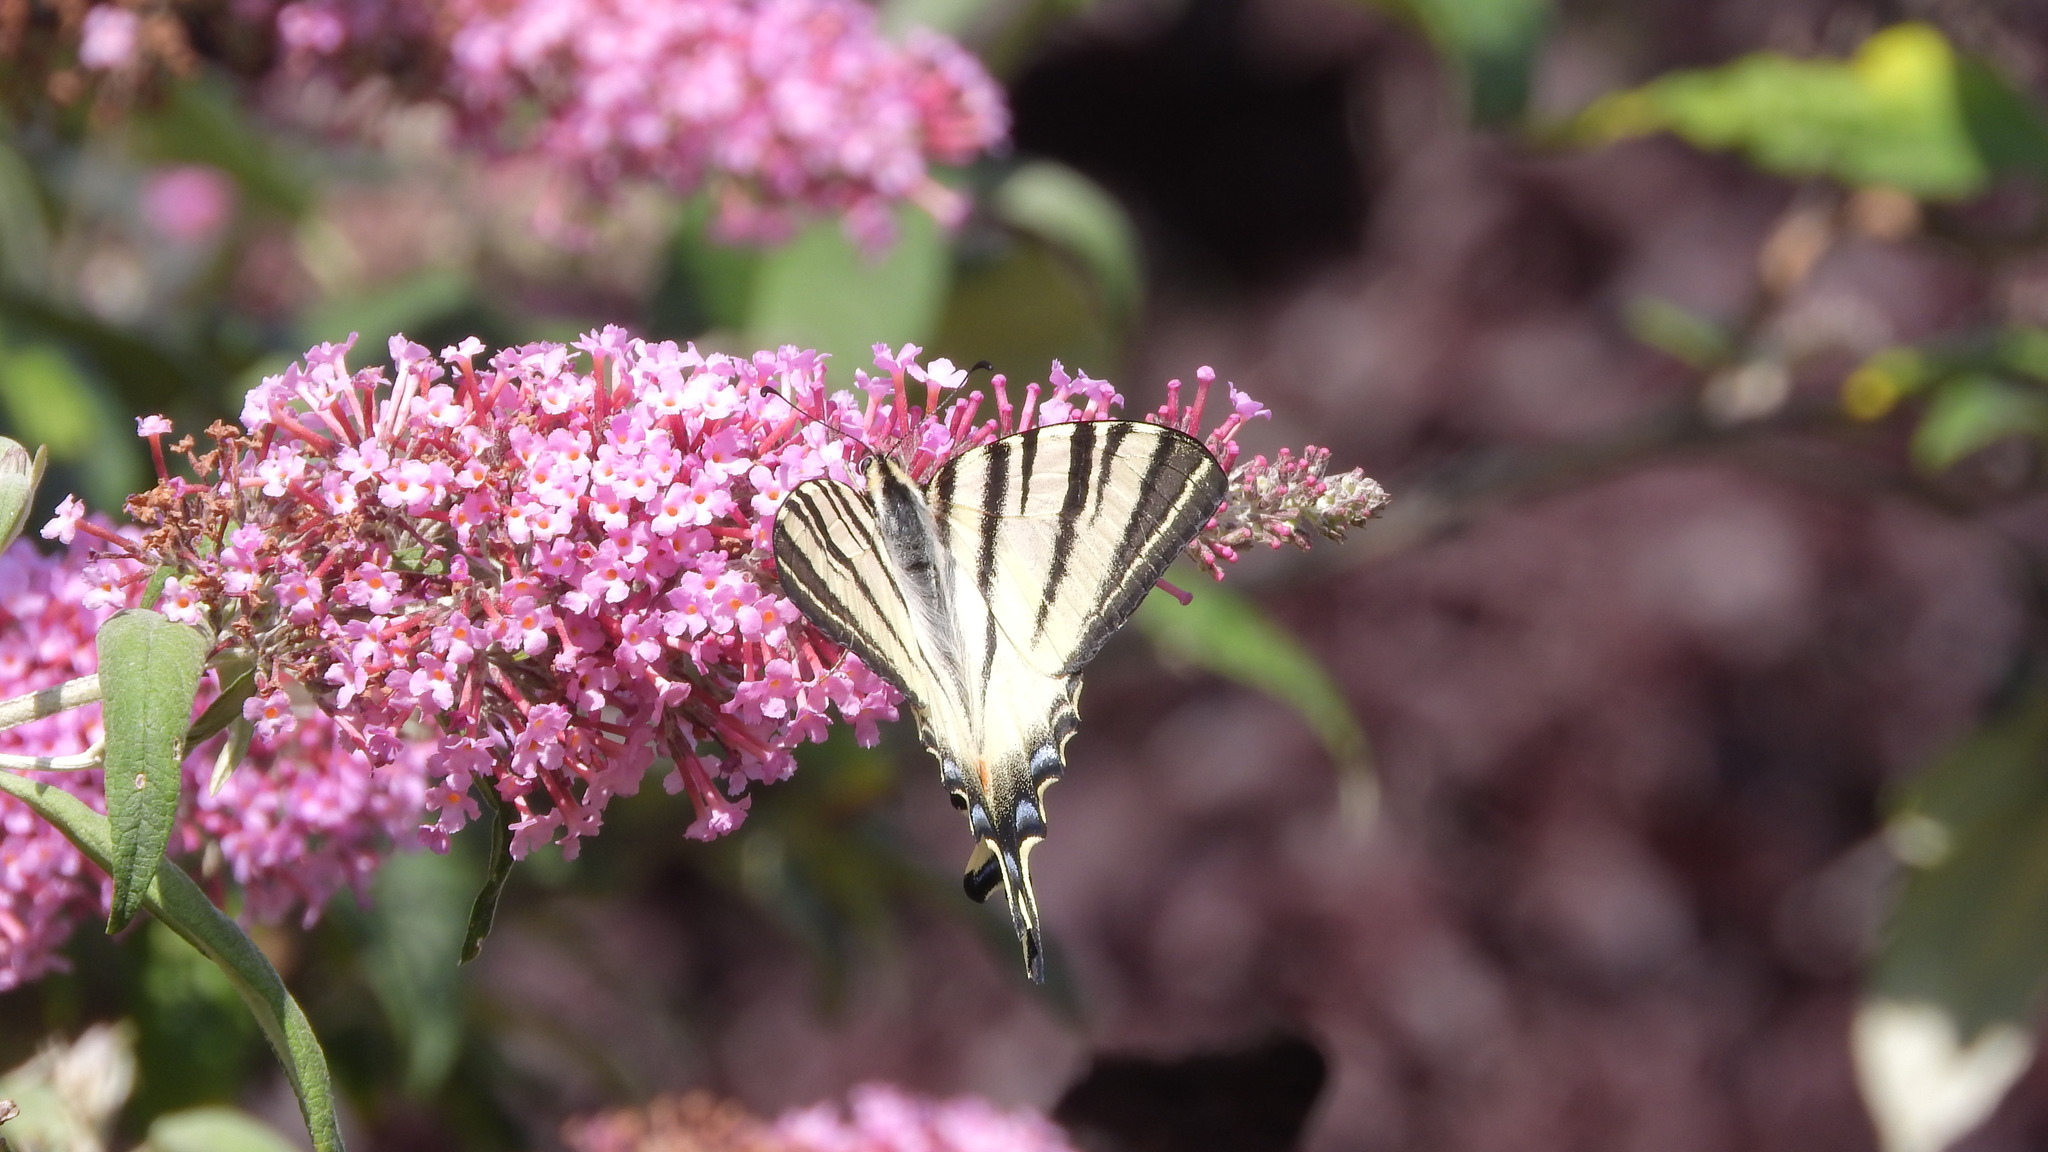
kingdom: Animalia
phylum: Arthropoda
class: Insecta
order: Lepidoptera
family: Papilionidae
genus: Iphiclides
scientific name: Iphiclides podalirius
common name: Scarce swallowtail
